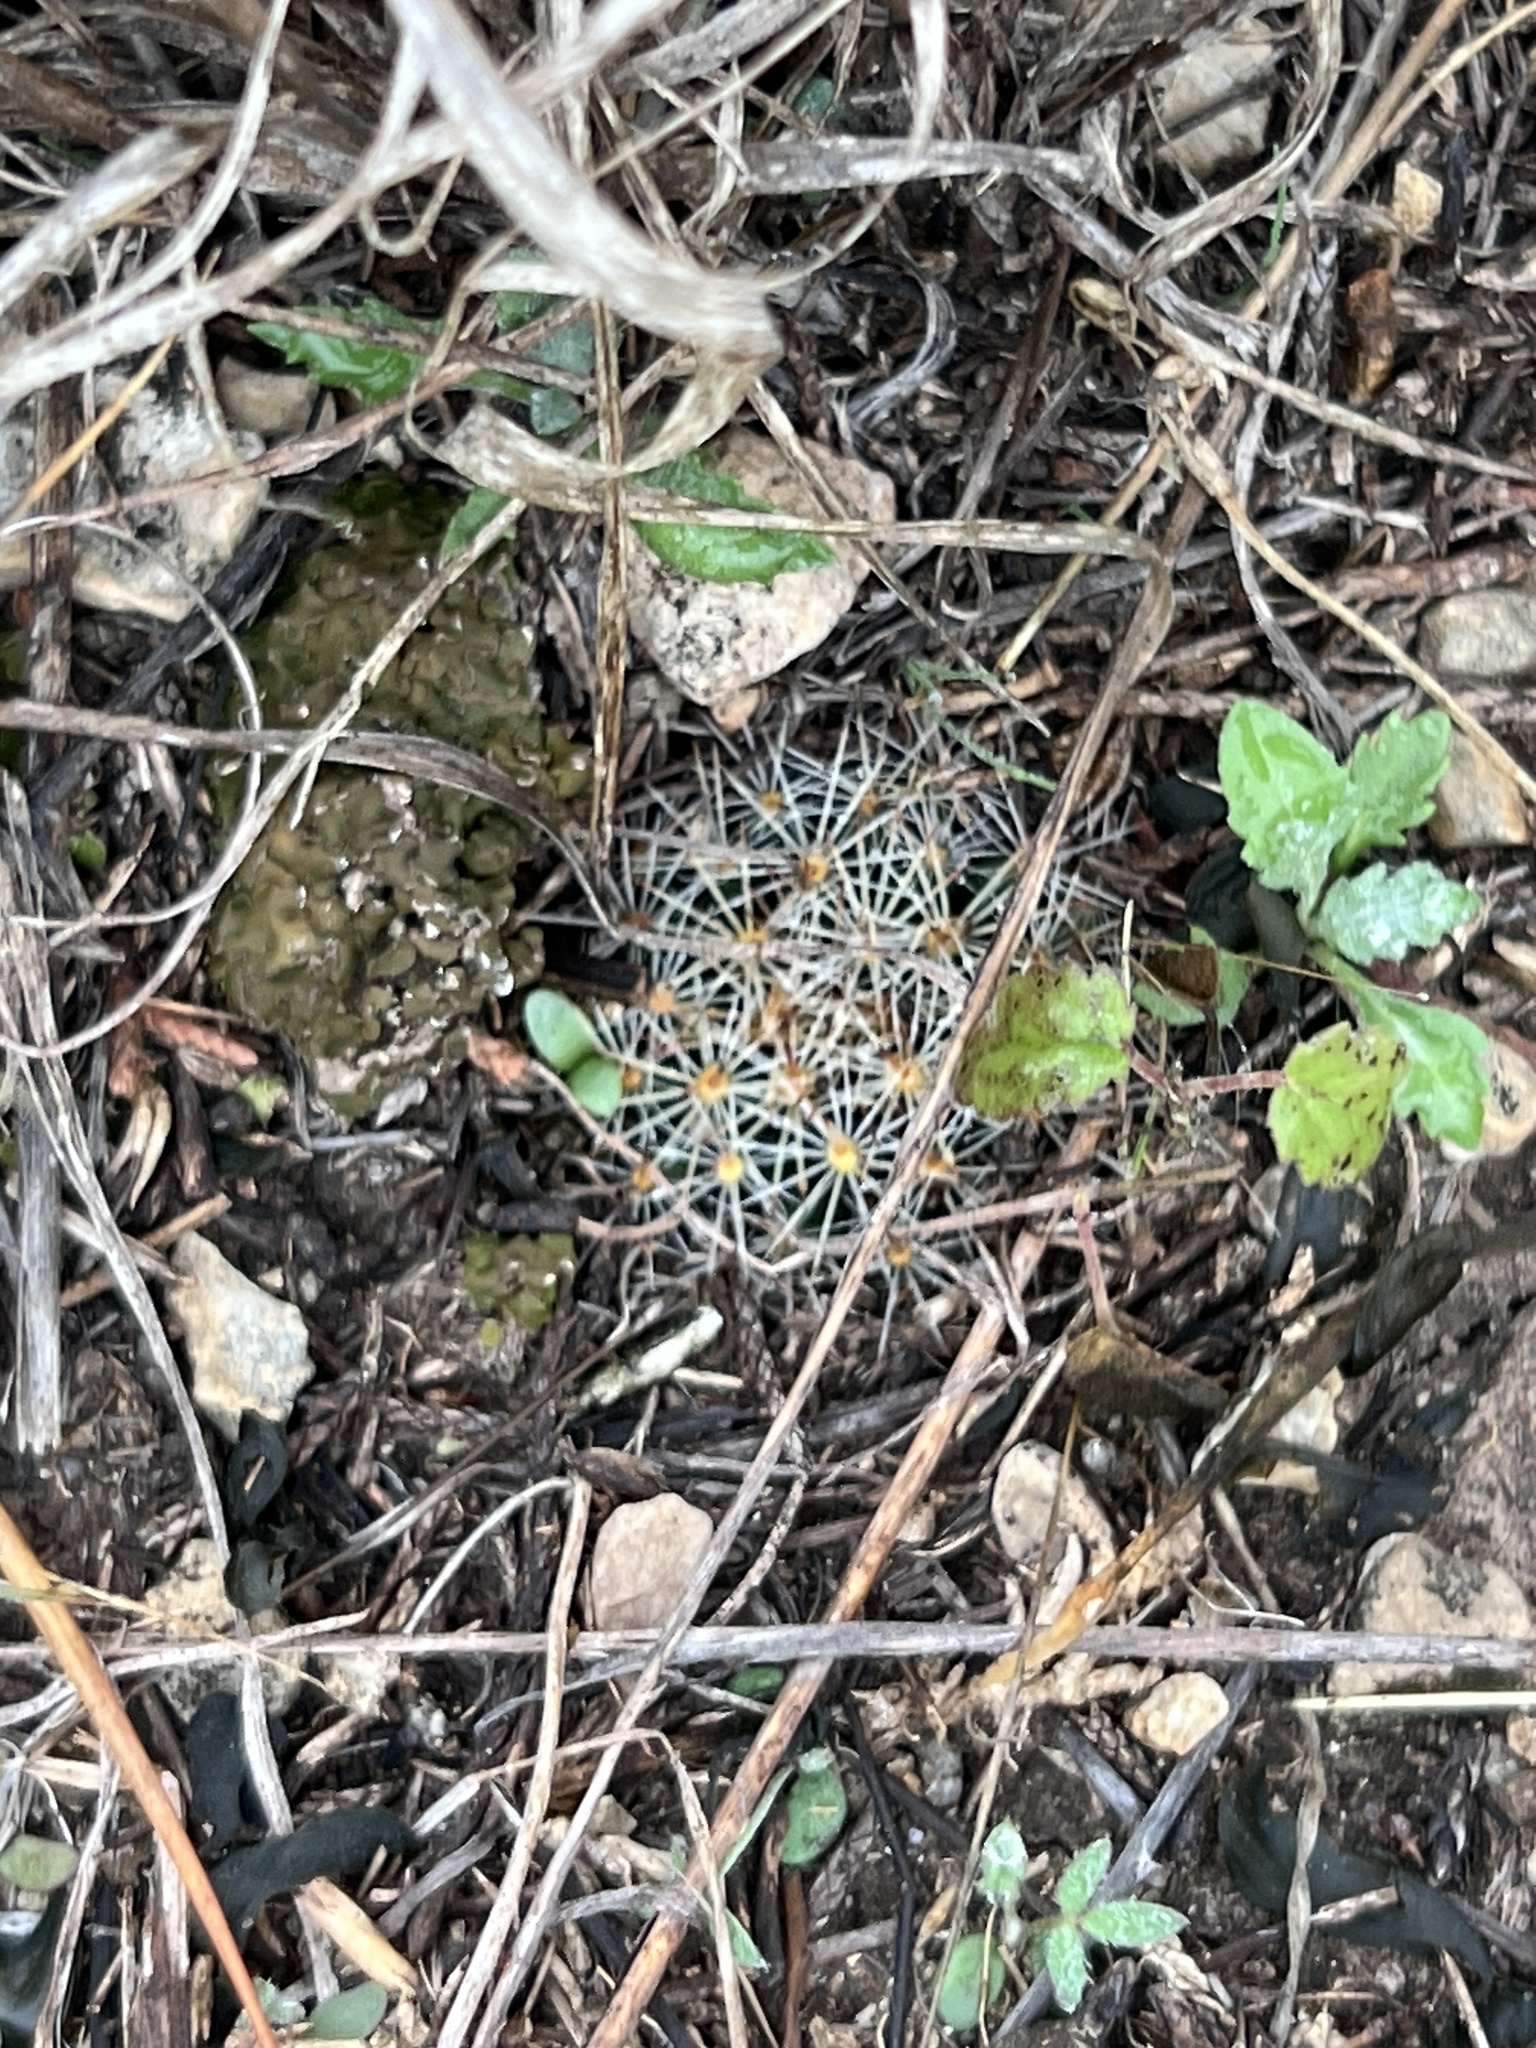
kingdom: Plantae
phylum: Tracheophyta
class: Magnoliopsida
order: Caryophyllales
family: Cactaceae
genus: Mammillaria
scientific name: Mammillaria heyderi
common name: Little nipple cactus
